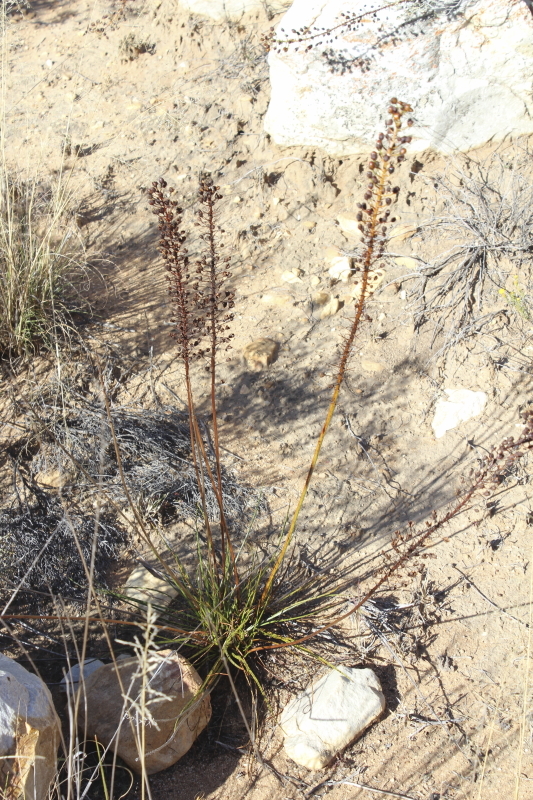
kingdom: Plantae
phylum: Tracheophyta
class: Liliopsida
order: Asparagales
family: Asphodelaceae
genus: Bulbine
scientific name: Bulbine abyssinica
